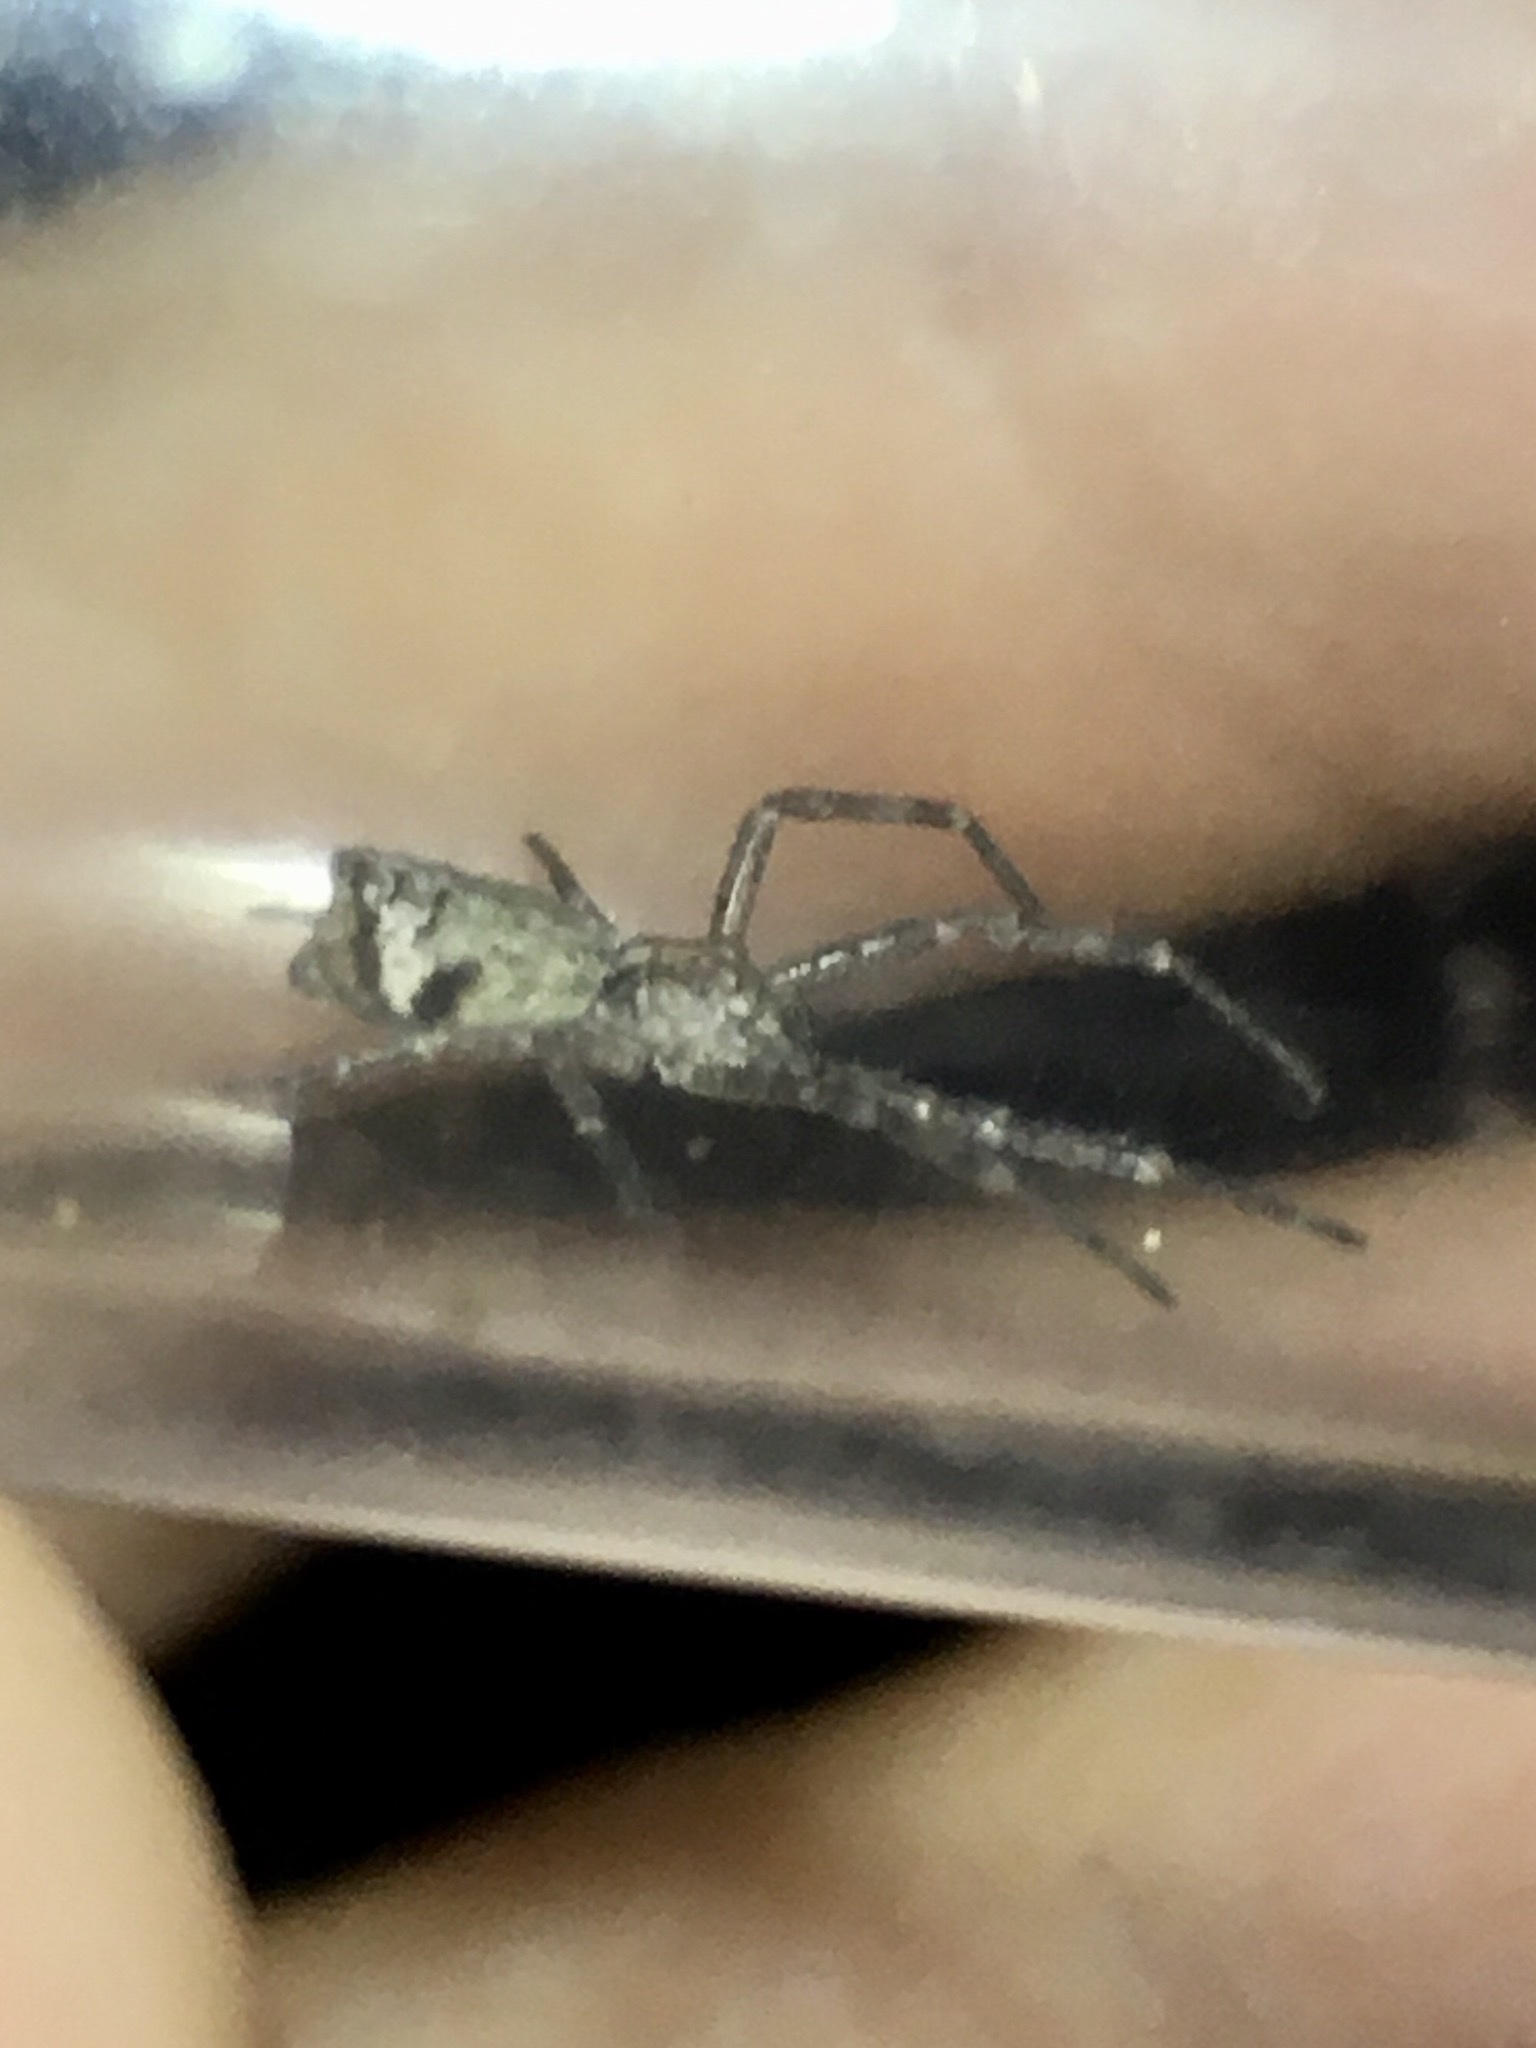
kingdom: Animalia
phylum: Arthropoda
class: Arachnida
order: Araneae
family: Thomisidae
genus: Tmarus
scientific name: Tmarus angulatus
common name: Tuberculated crab spider
